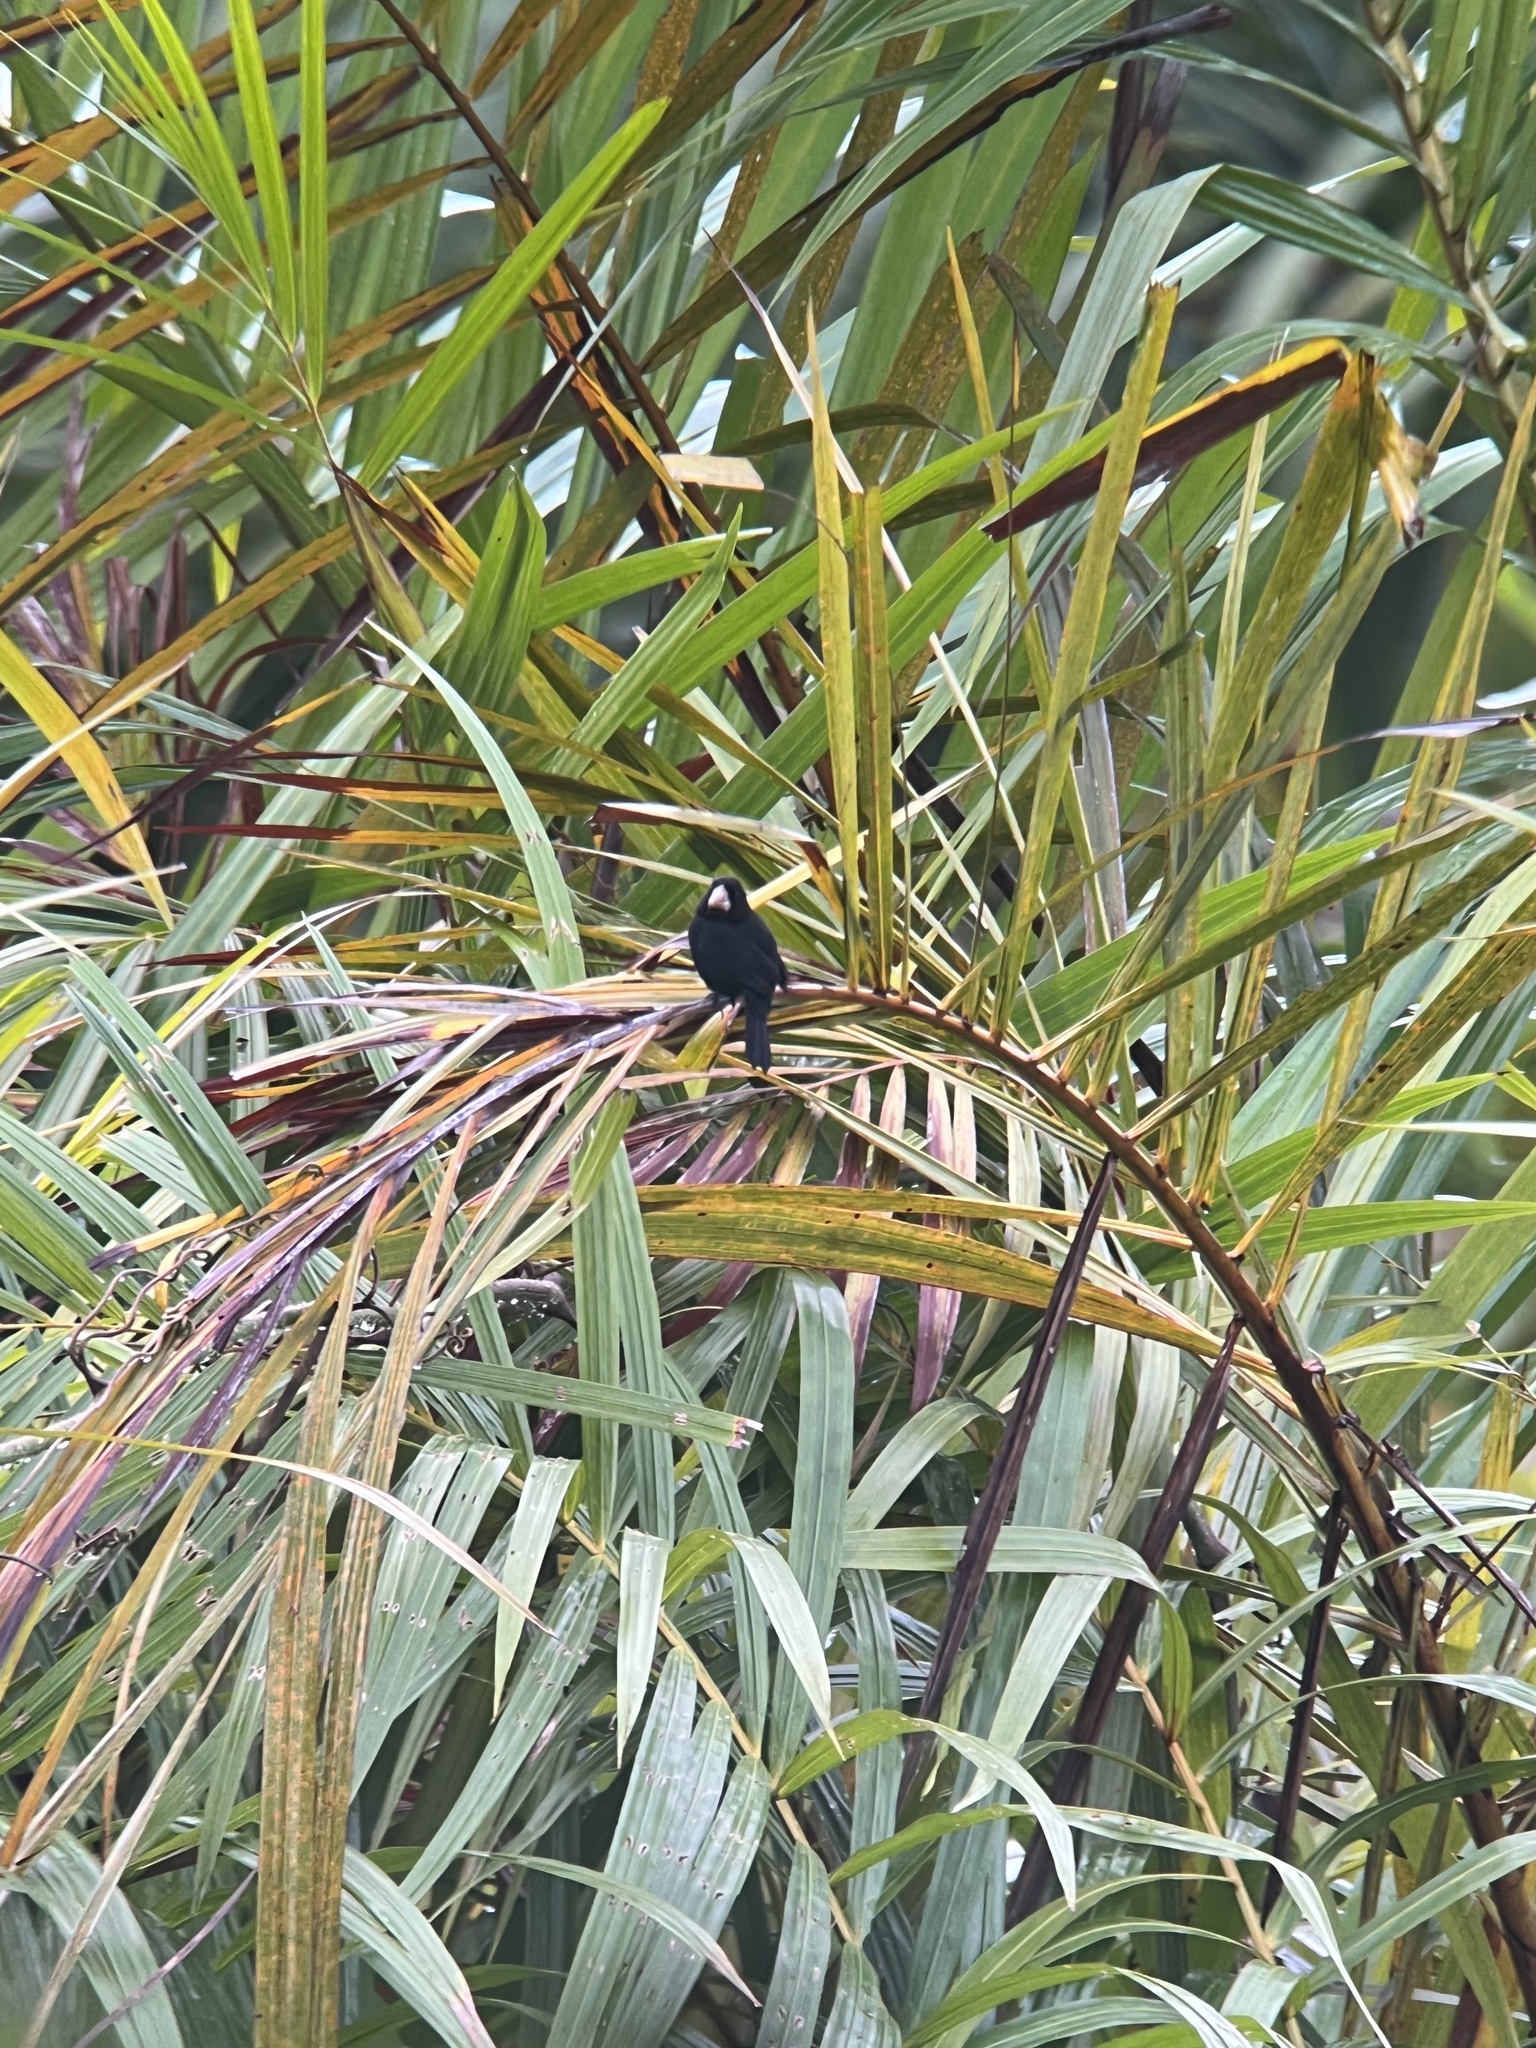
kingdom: Animalia
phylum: Chordata
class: Aves
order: Passeriformes
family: Thraupidae
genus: Sporophila
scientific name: Sporophila nuttingi
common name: Nicaraguan seed-finch
